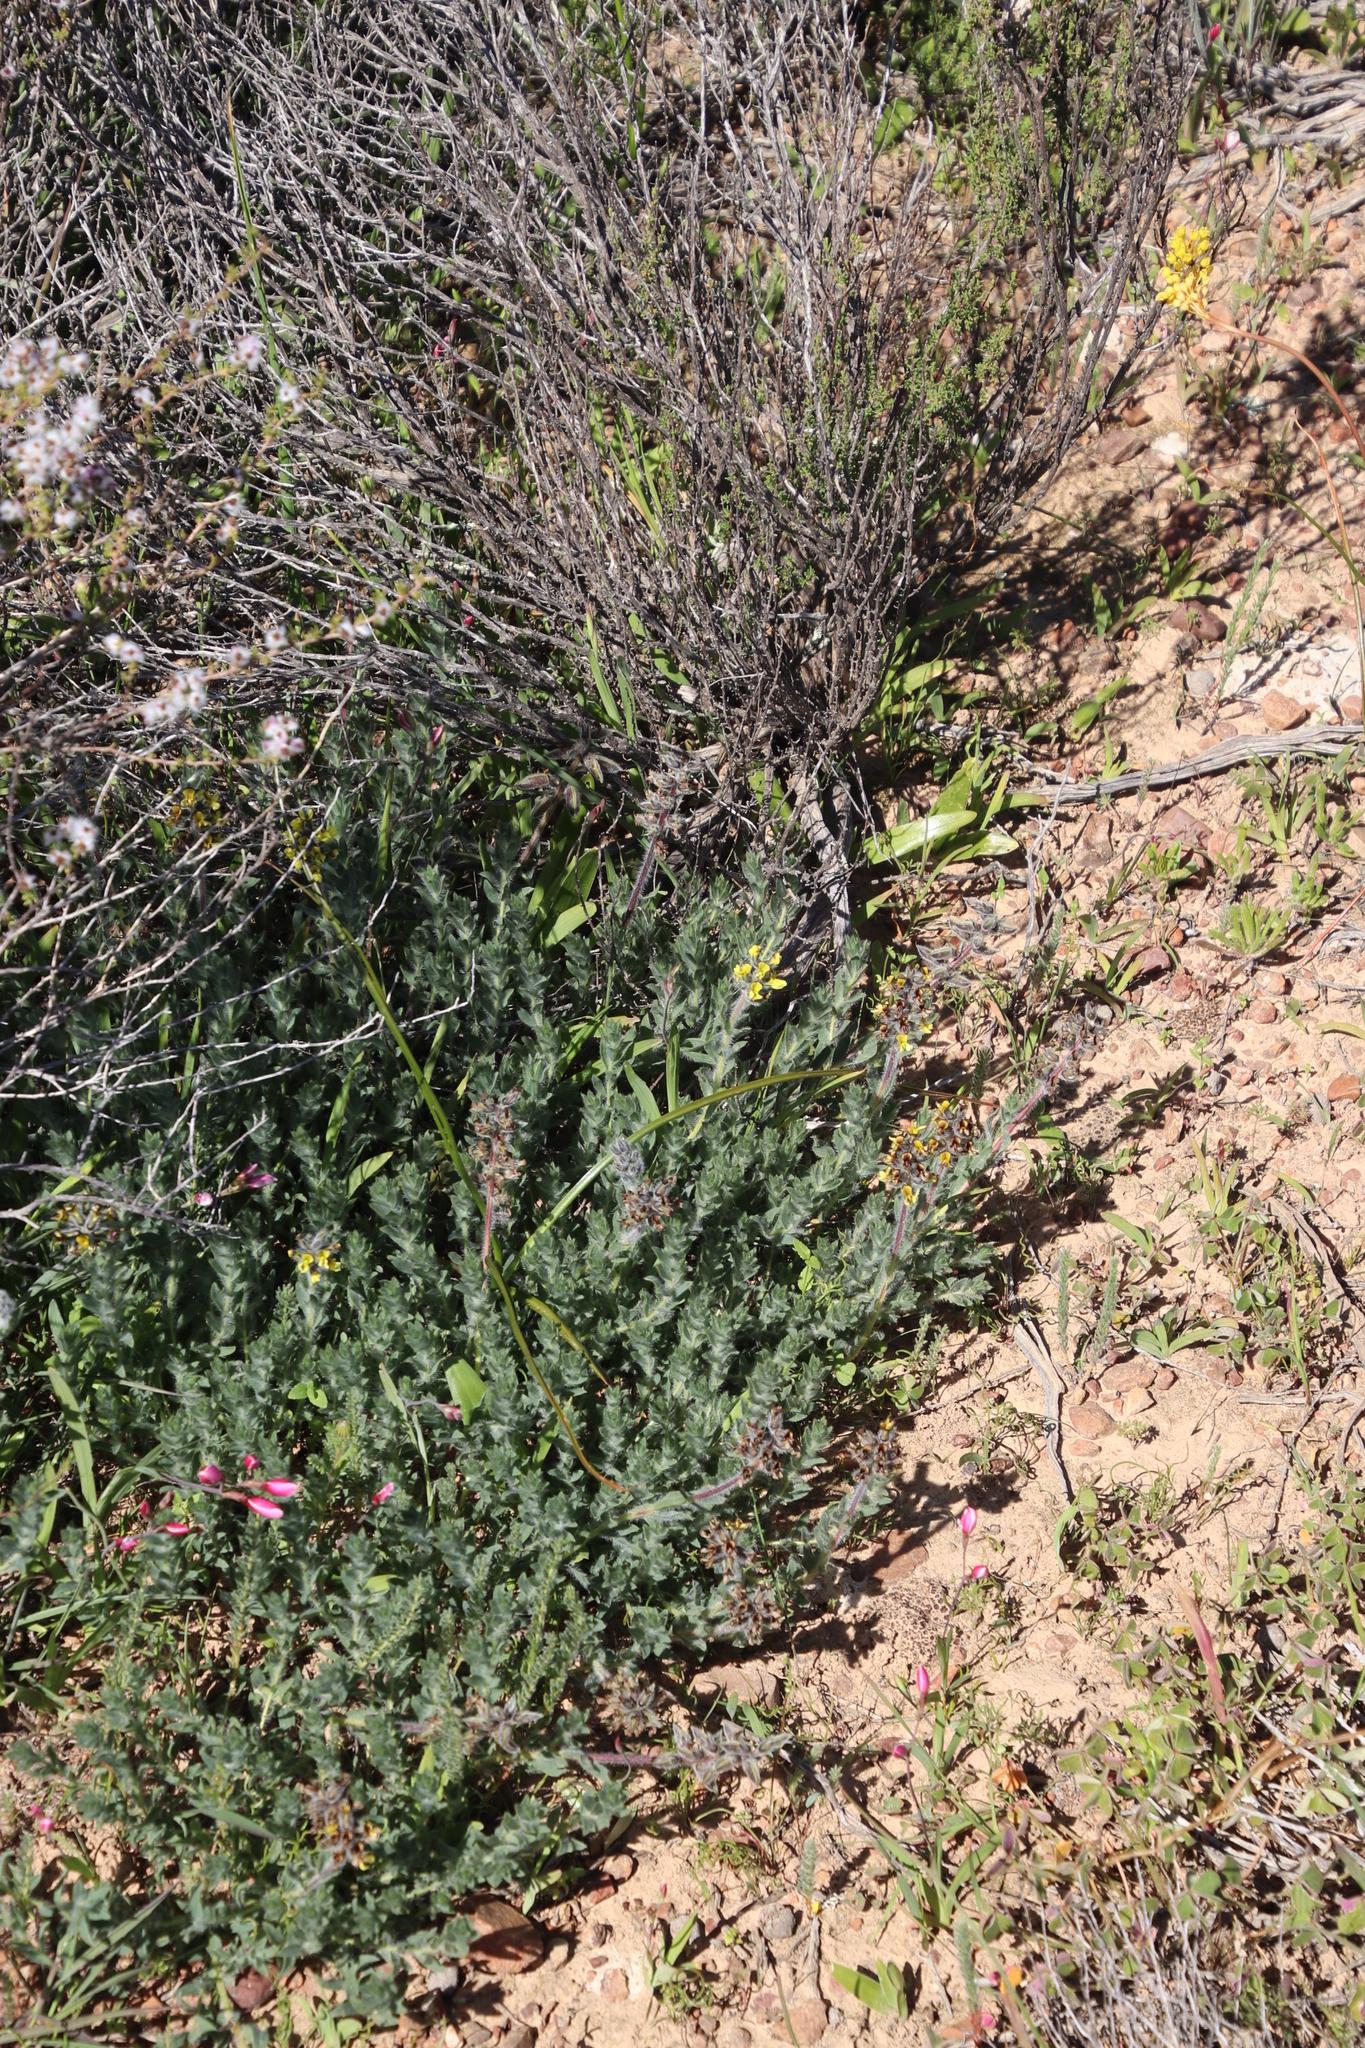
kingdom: Plantae
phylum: Tracheophyta
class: Magnoliopsida
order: Fabales
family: Fabaceae
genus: Euchlora
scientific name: Euchlora hirsuta
